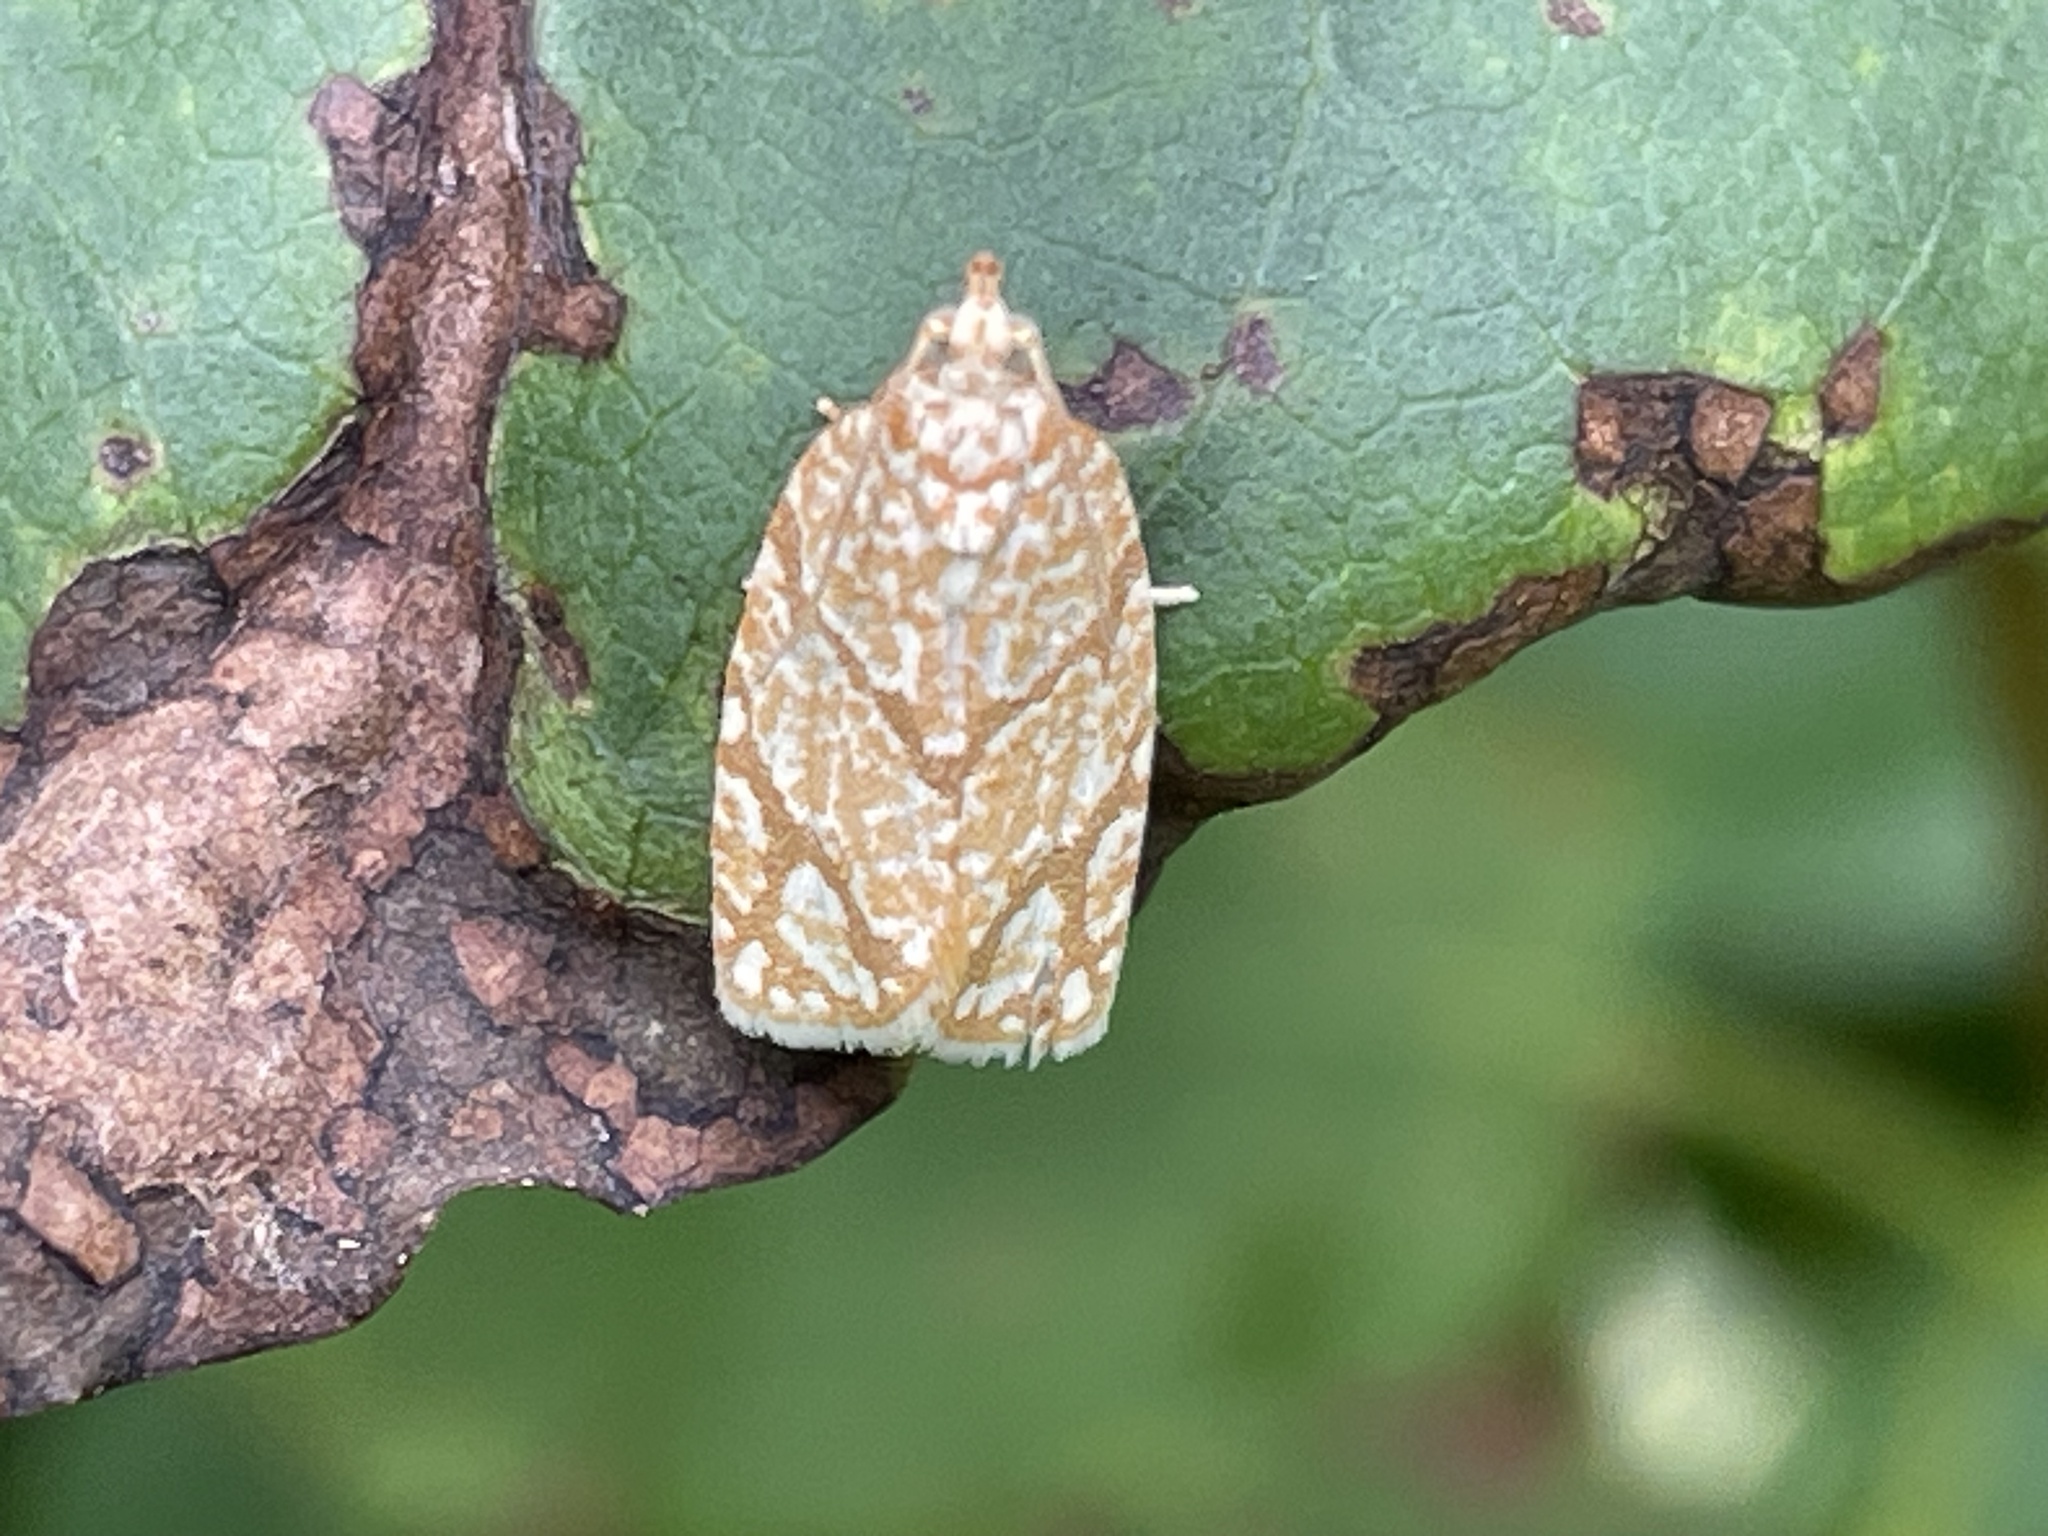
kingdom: Animalia
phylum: Arthropoda
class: Insecta
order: Lepidoptera
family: Tortricidae
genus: Argyrotaenia
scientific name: Argyrotaenia quercifoliana
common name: Yellow-winged oak leafroller moth
